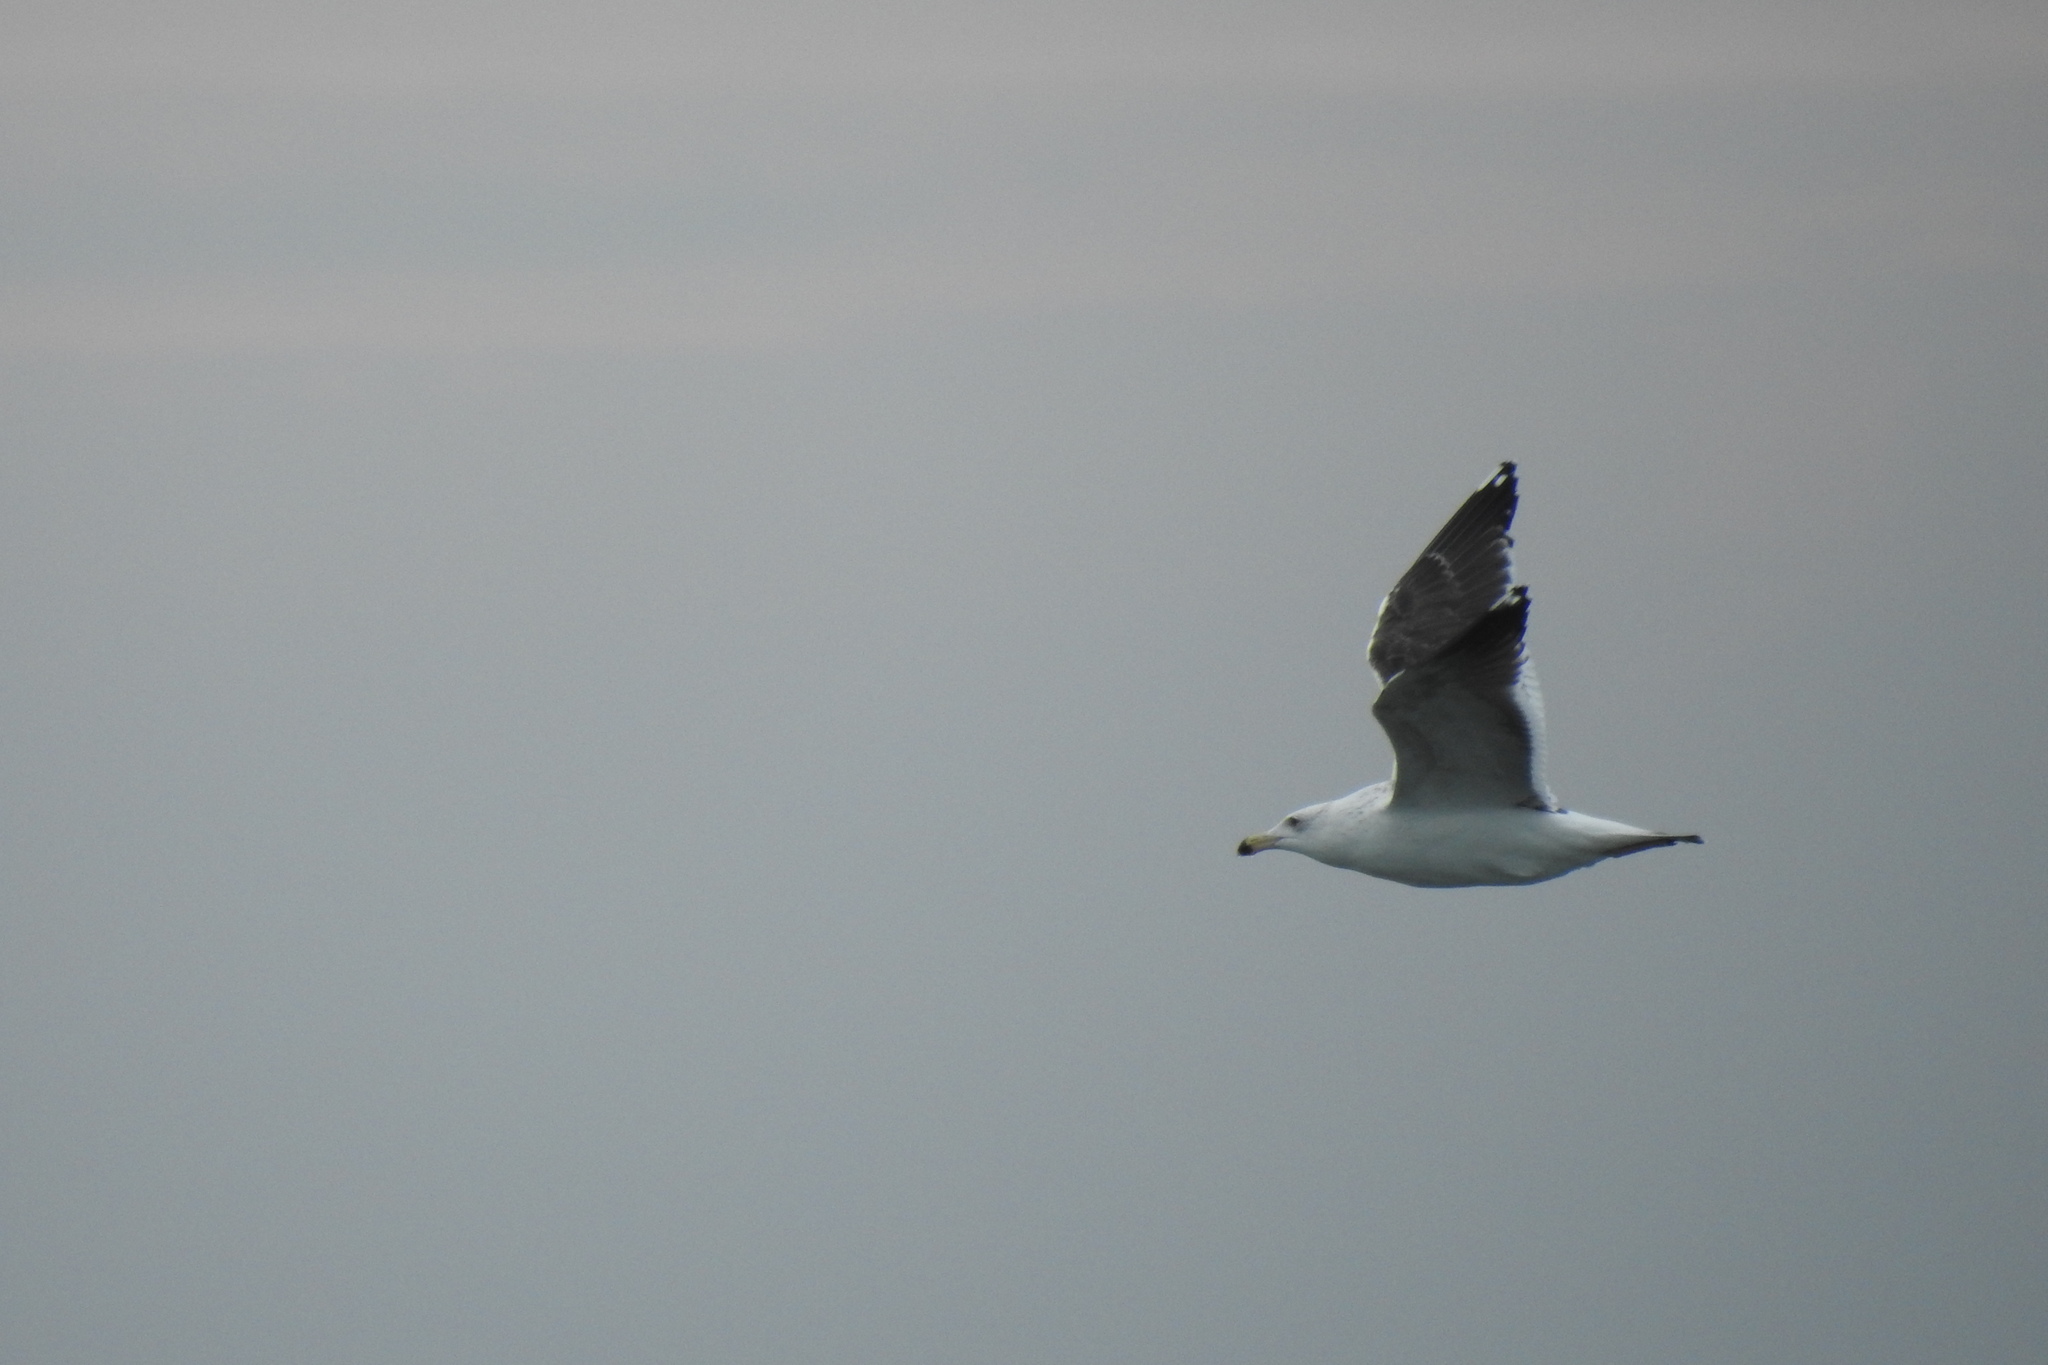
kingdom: Animalia
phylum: Chordata
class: Aves
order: Charadriiformes
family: Laridae
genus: Larus
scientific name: Larus marinus
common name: Great black-backed gull
